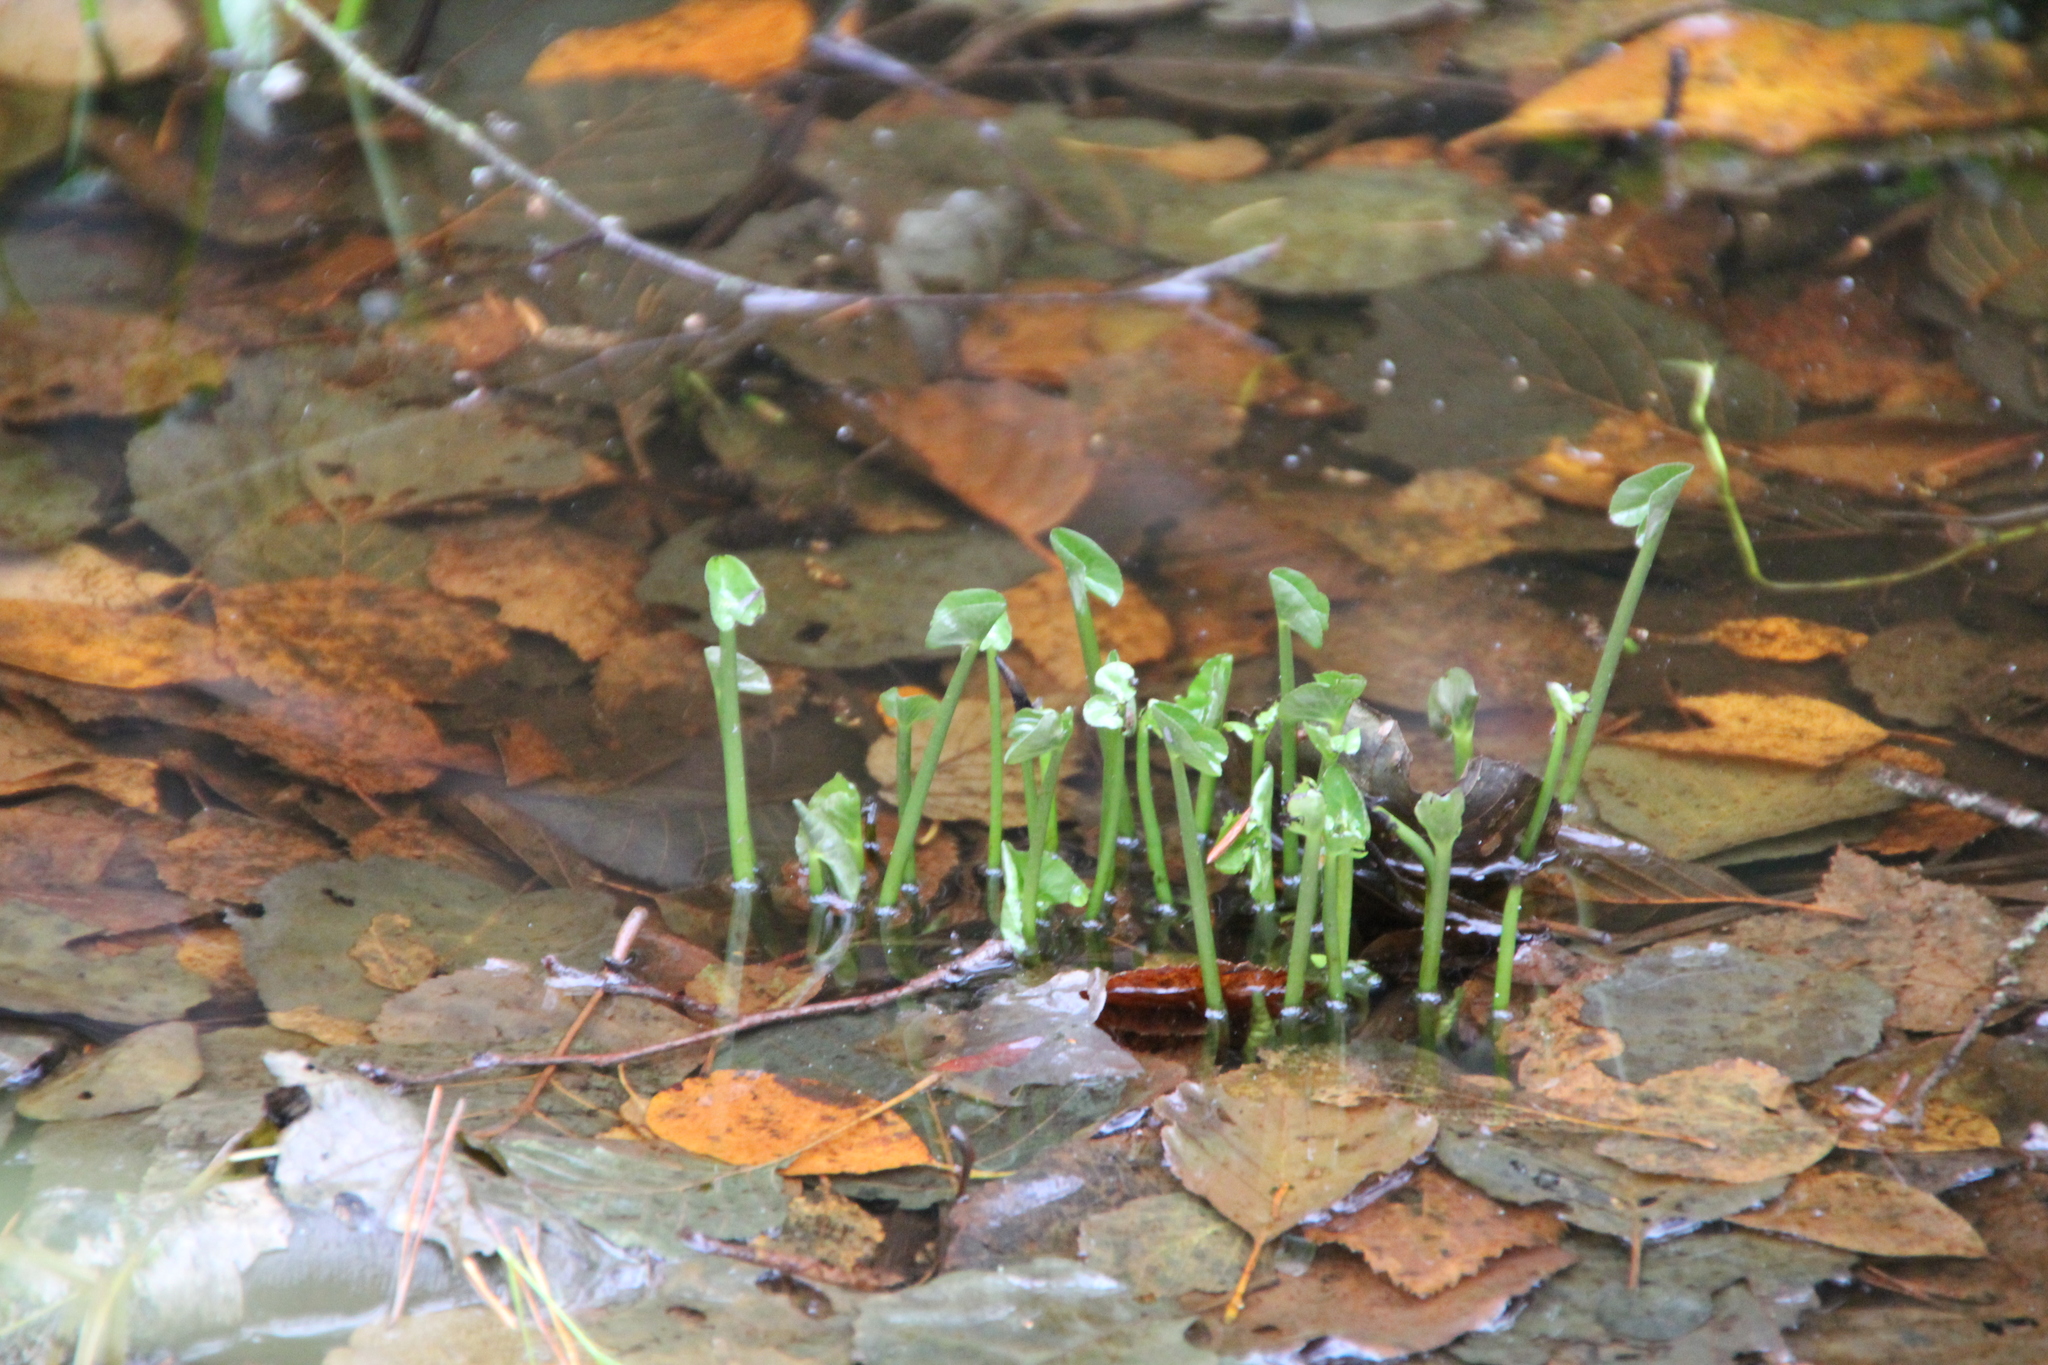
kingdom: Plantae
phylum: Tracheophyta
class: Magnoliopsida
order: Ranunculales
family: Ranunculaceae
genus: Caltha
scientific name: Caltha palustris
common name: Marsh marigold
